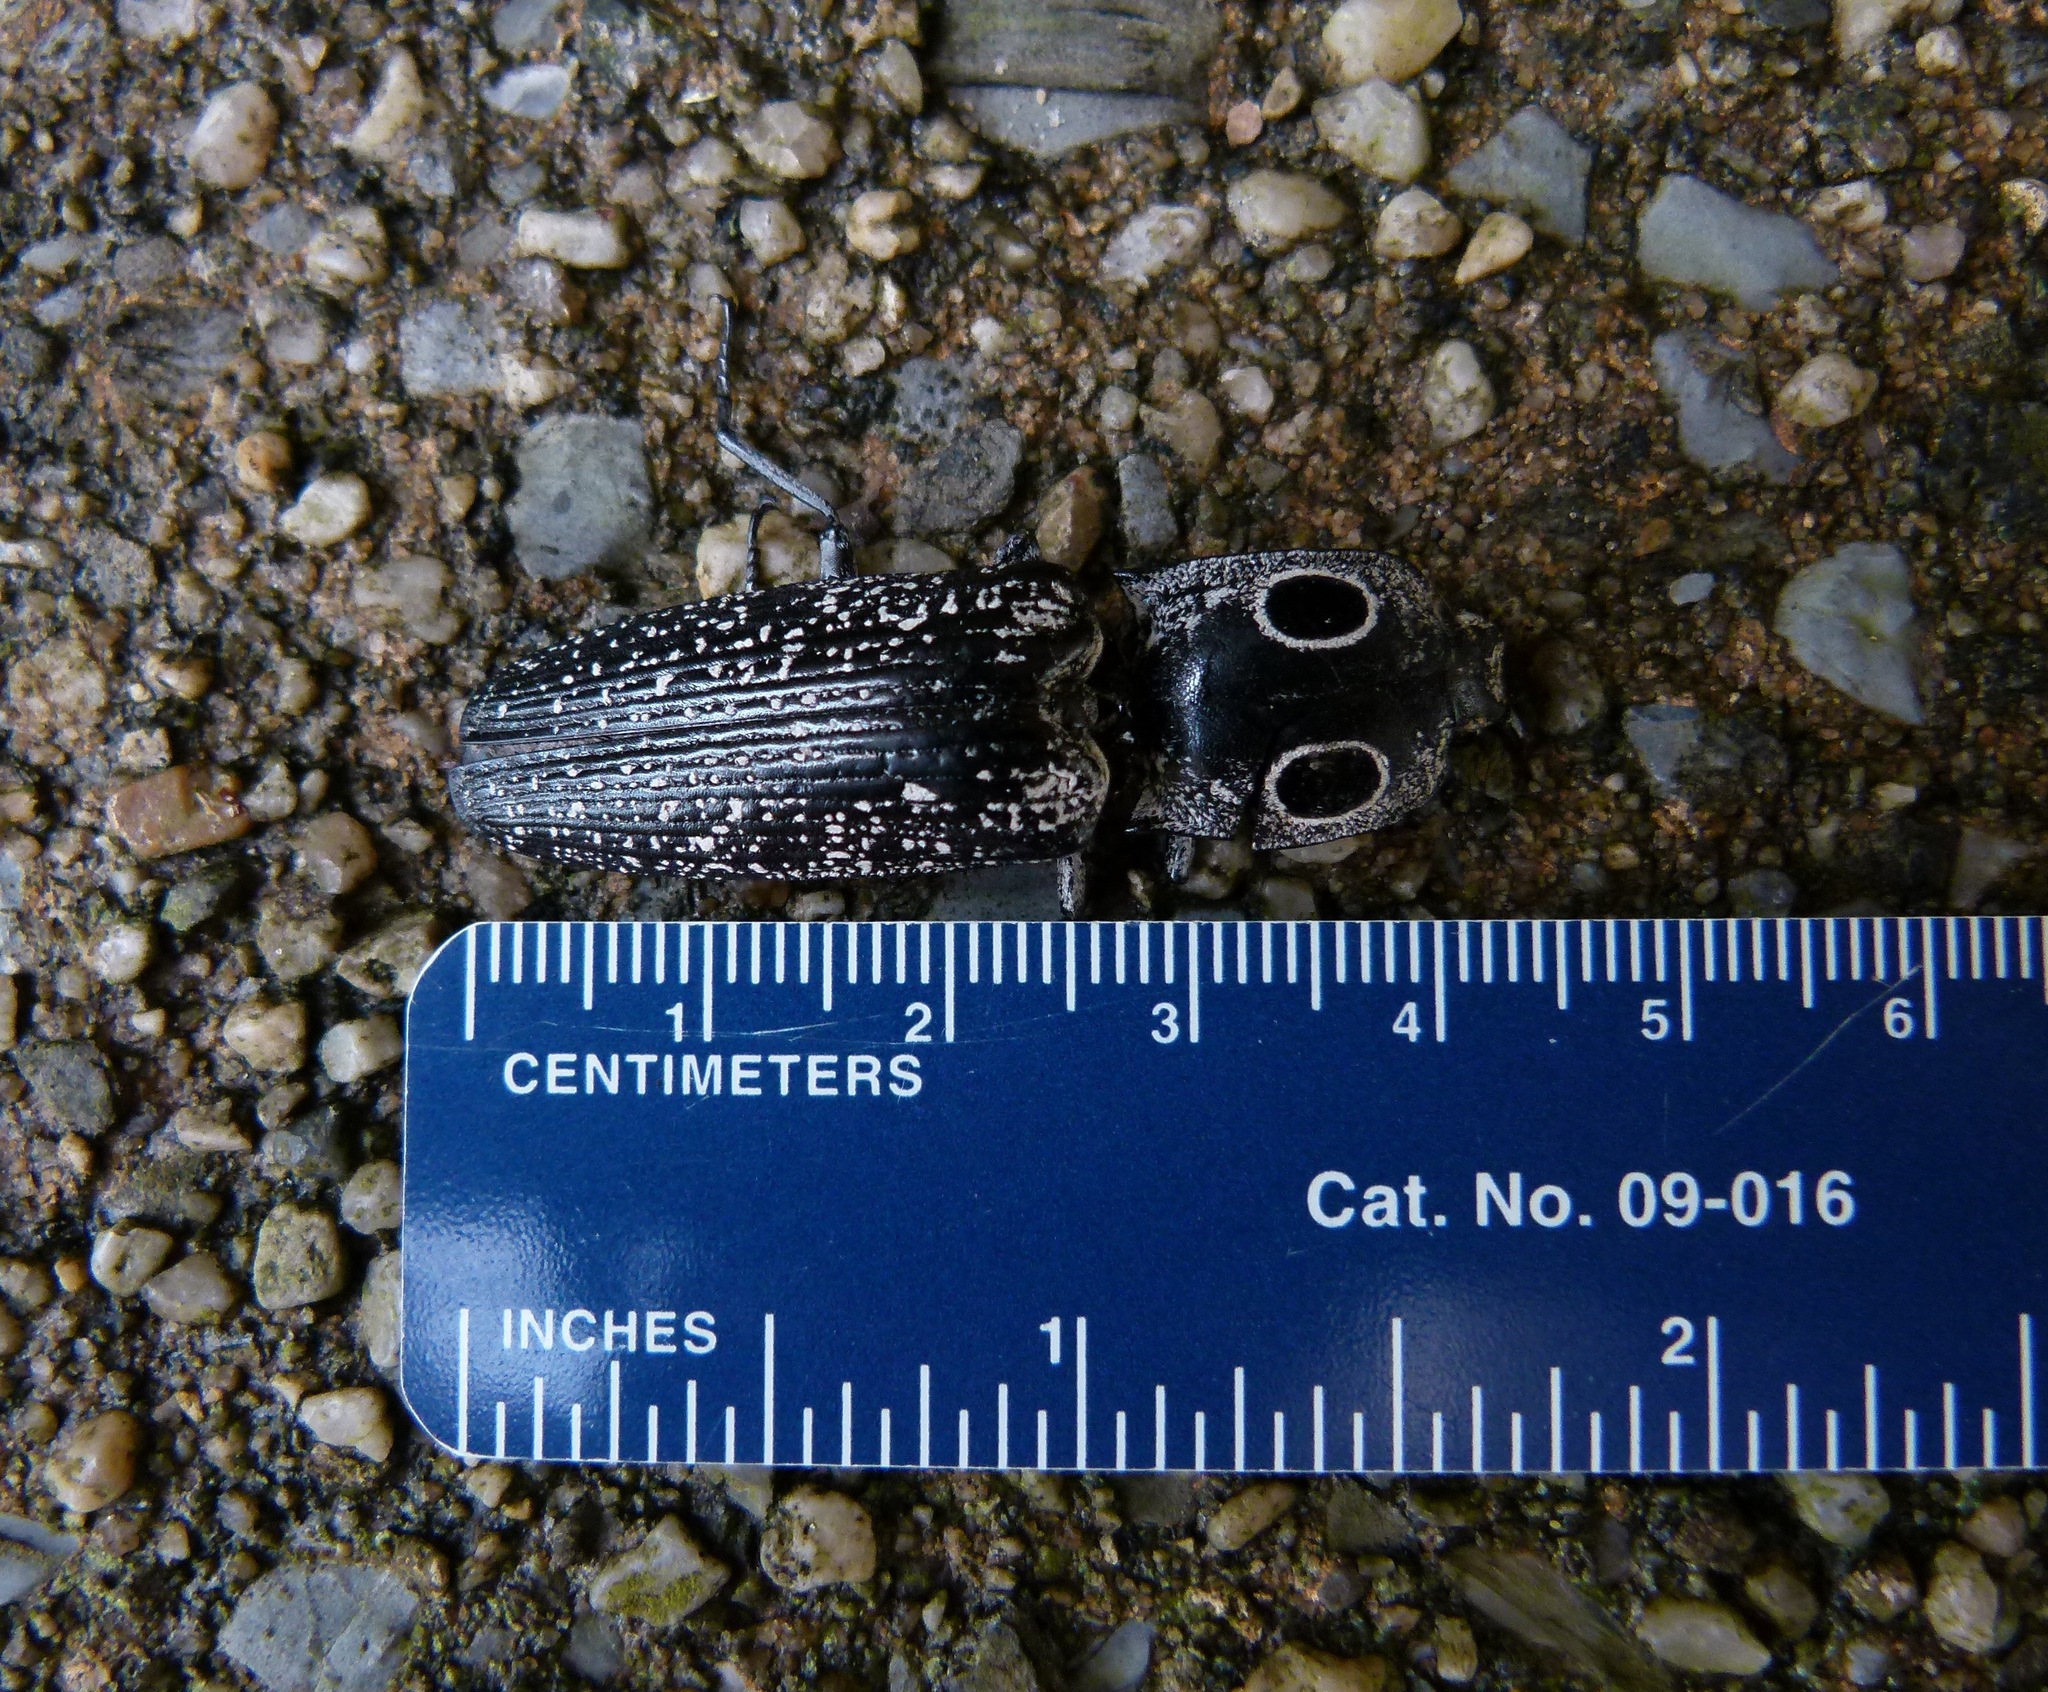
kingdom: Animalia
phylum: Arthropoda
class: Insecta
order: Coleoptera
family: Elateridae
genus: Alaus
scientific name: Alaus oculatus
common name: Eastern eyed click beetle
